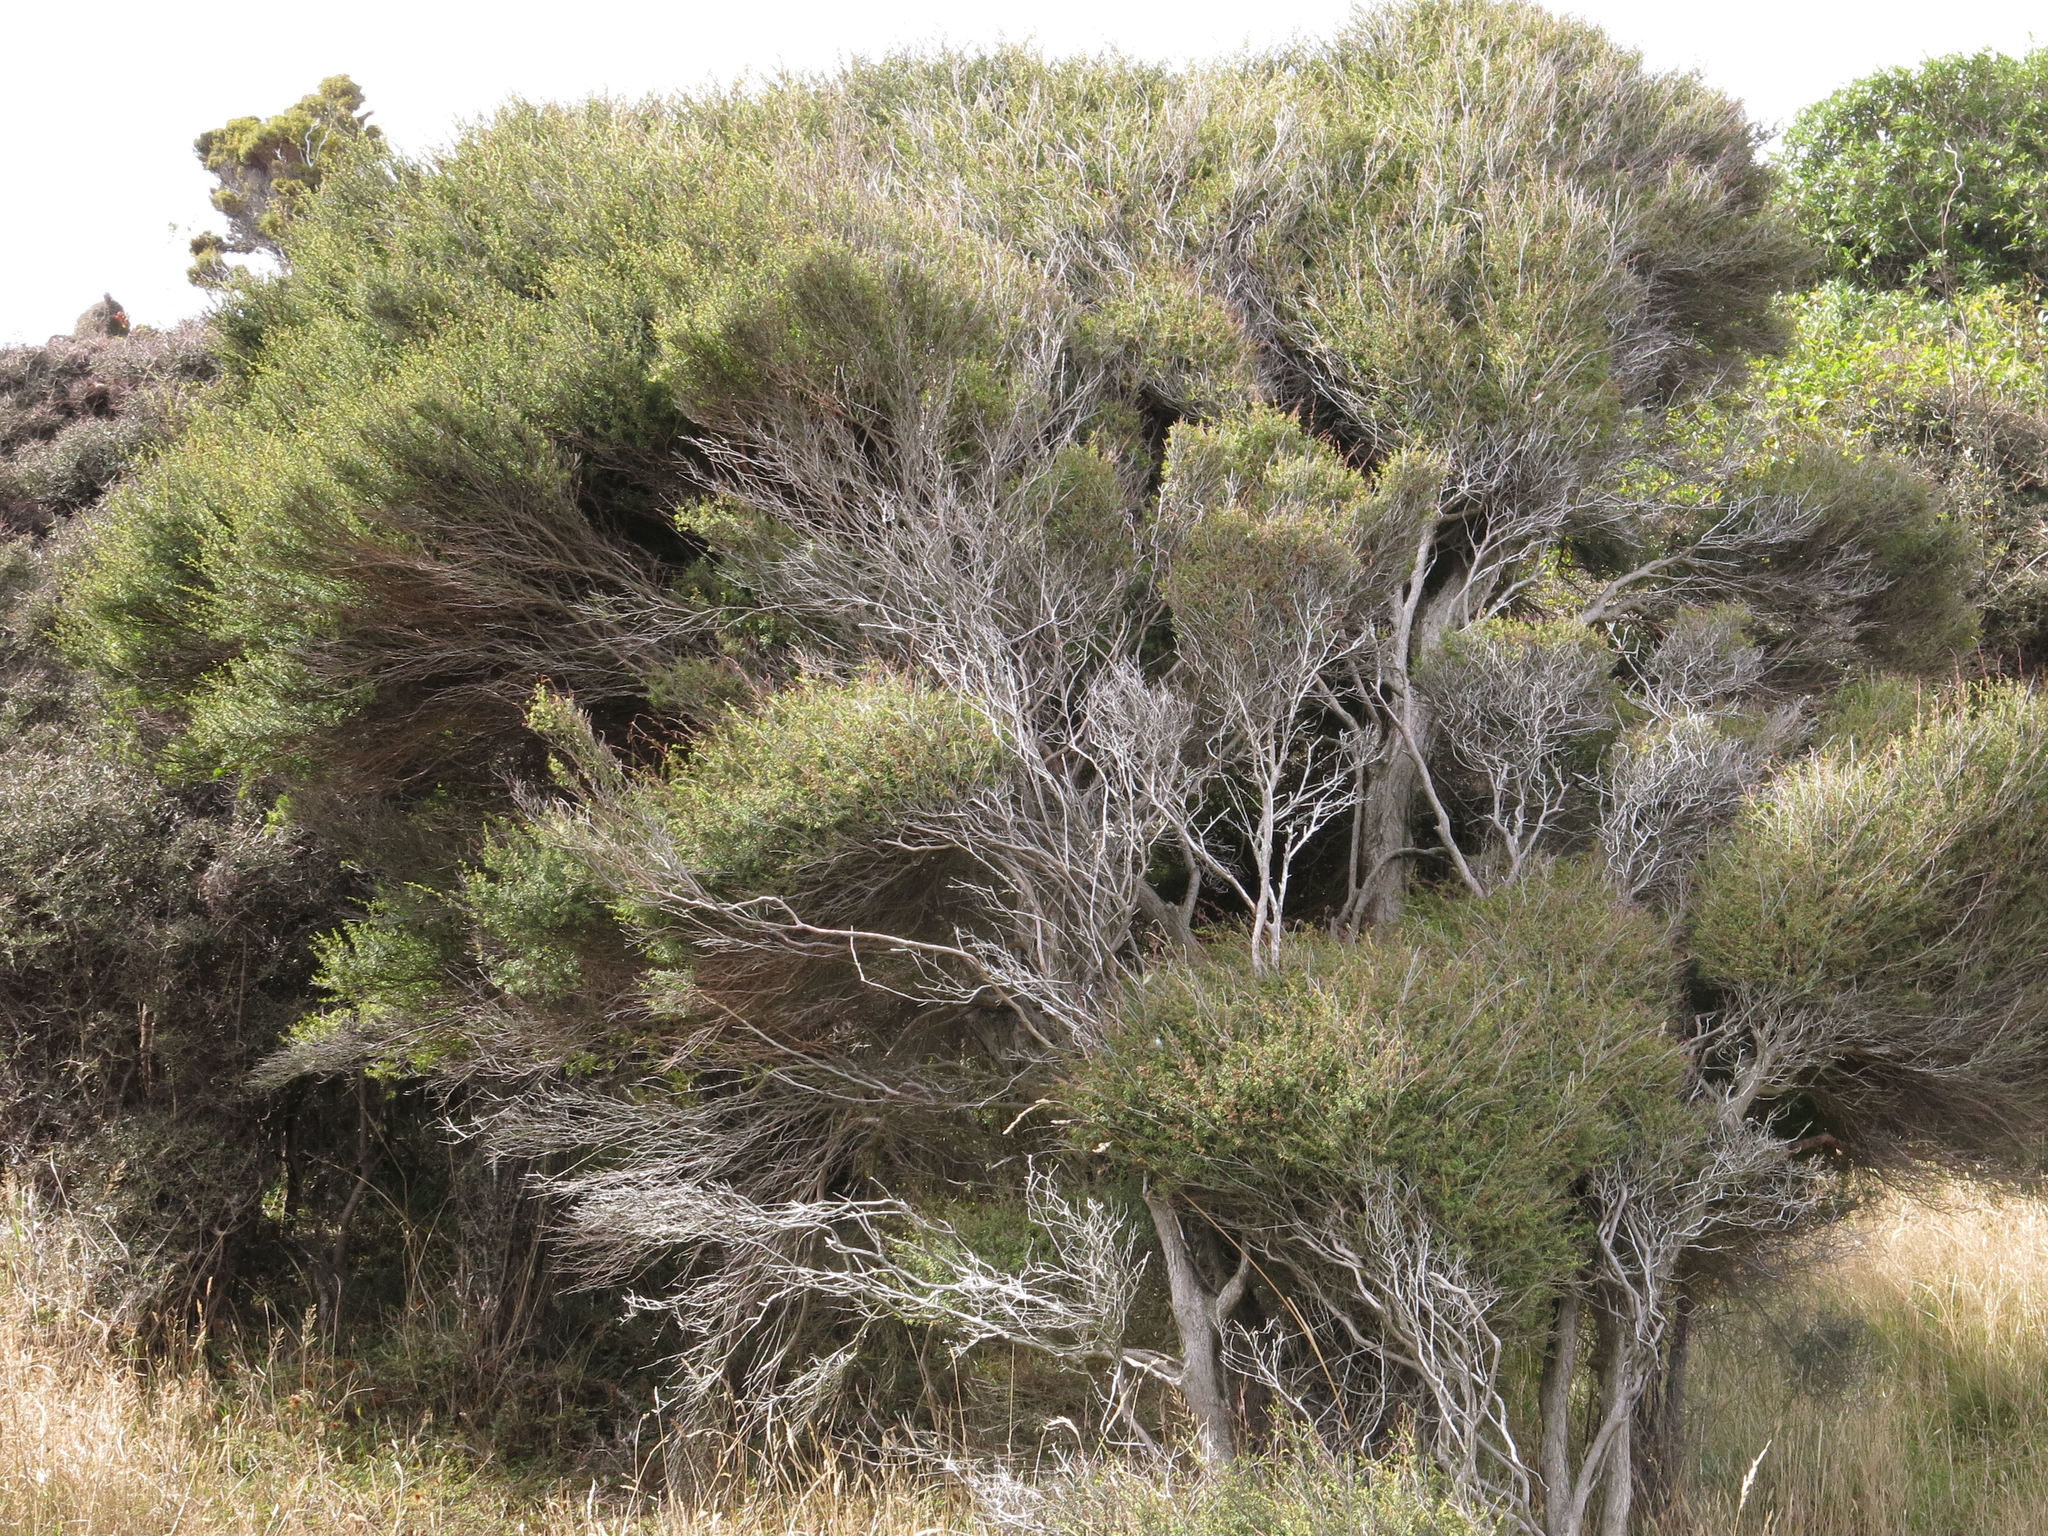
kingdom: Plantae
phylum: Tracheophyta
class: Magnoliopsida
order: Myrtales
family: Myrtaceae
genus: Kunzea
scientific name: Kunzea robusta
